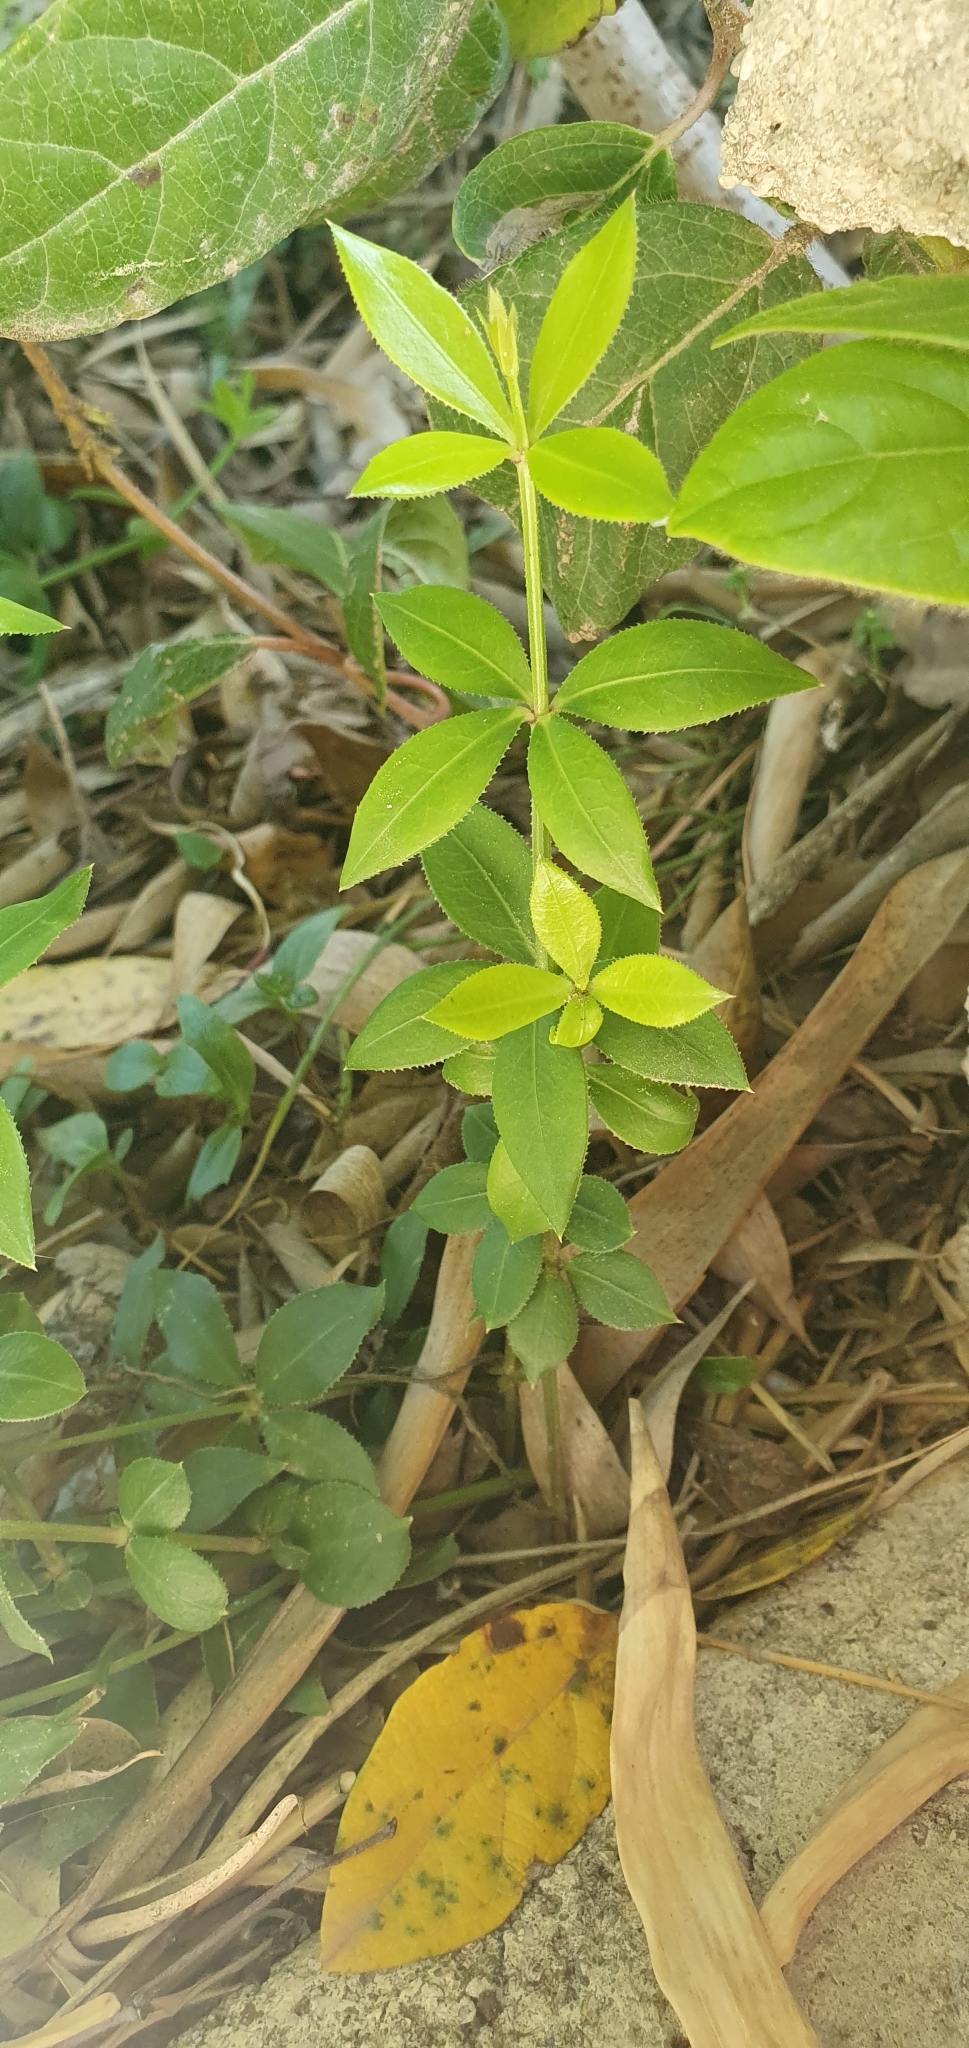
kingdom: Plantae
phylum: Tracheophyta
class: Magnoliopsida
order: Gentianales
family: Rubiaceae
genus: Rubia
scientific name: Rubia peregrina
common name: Wild madder
